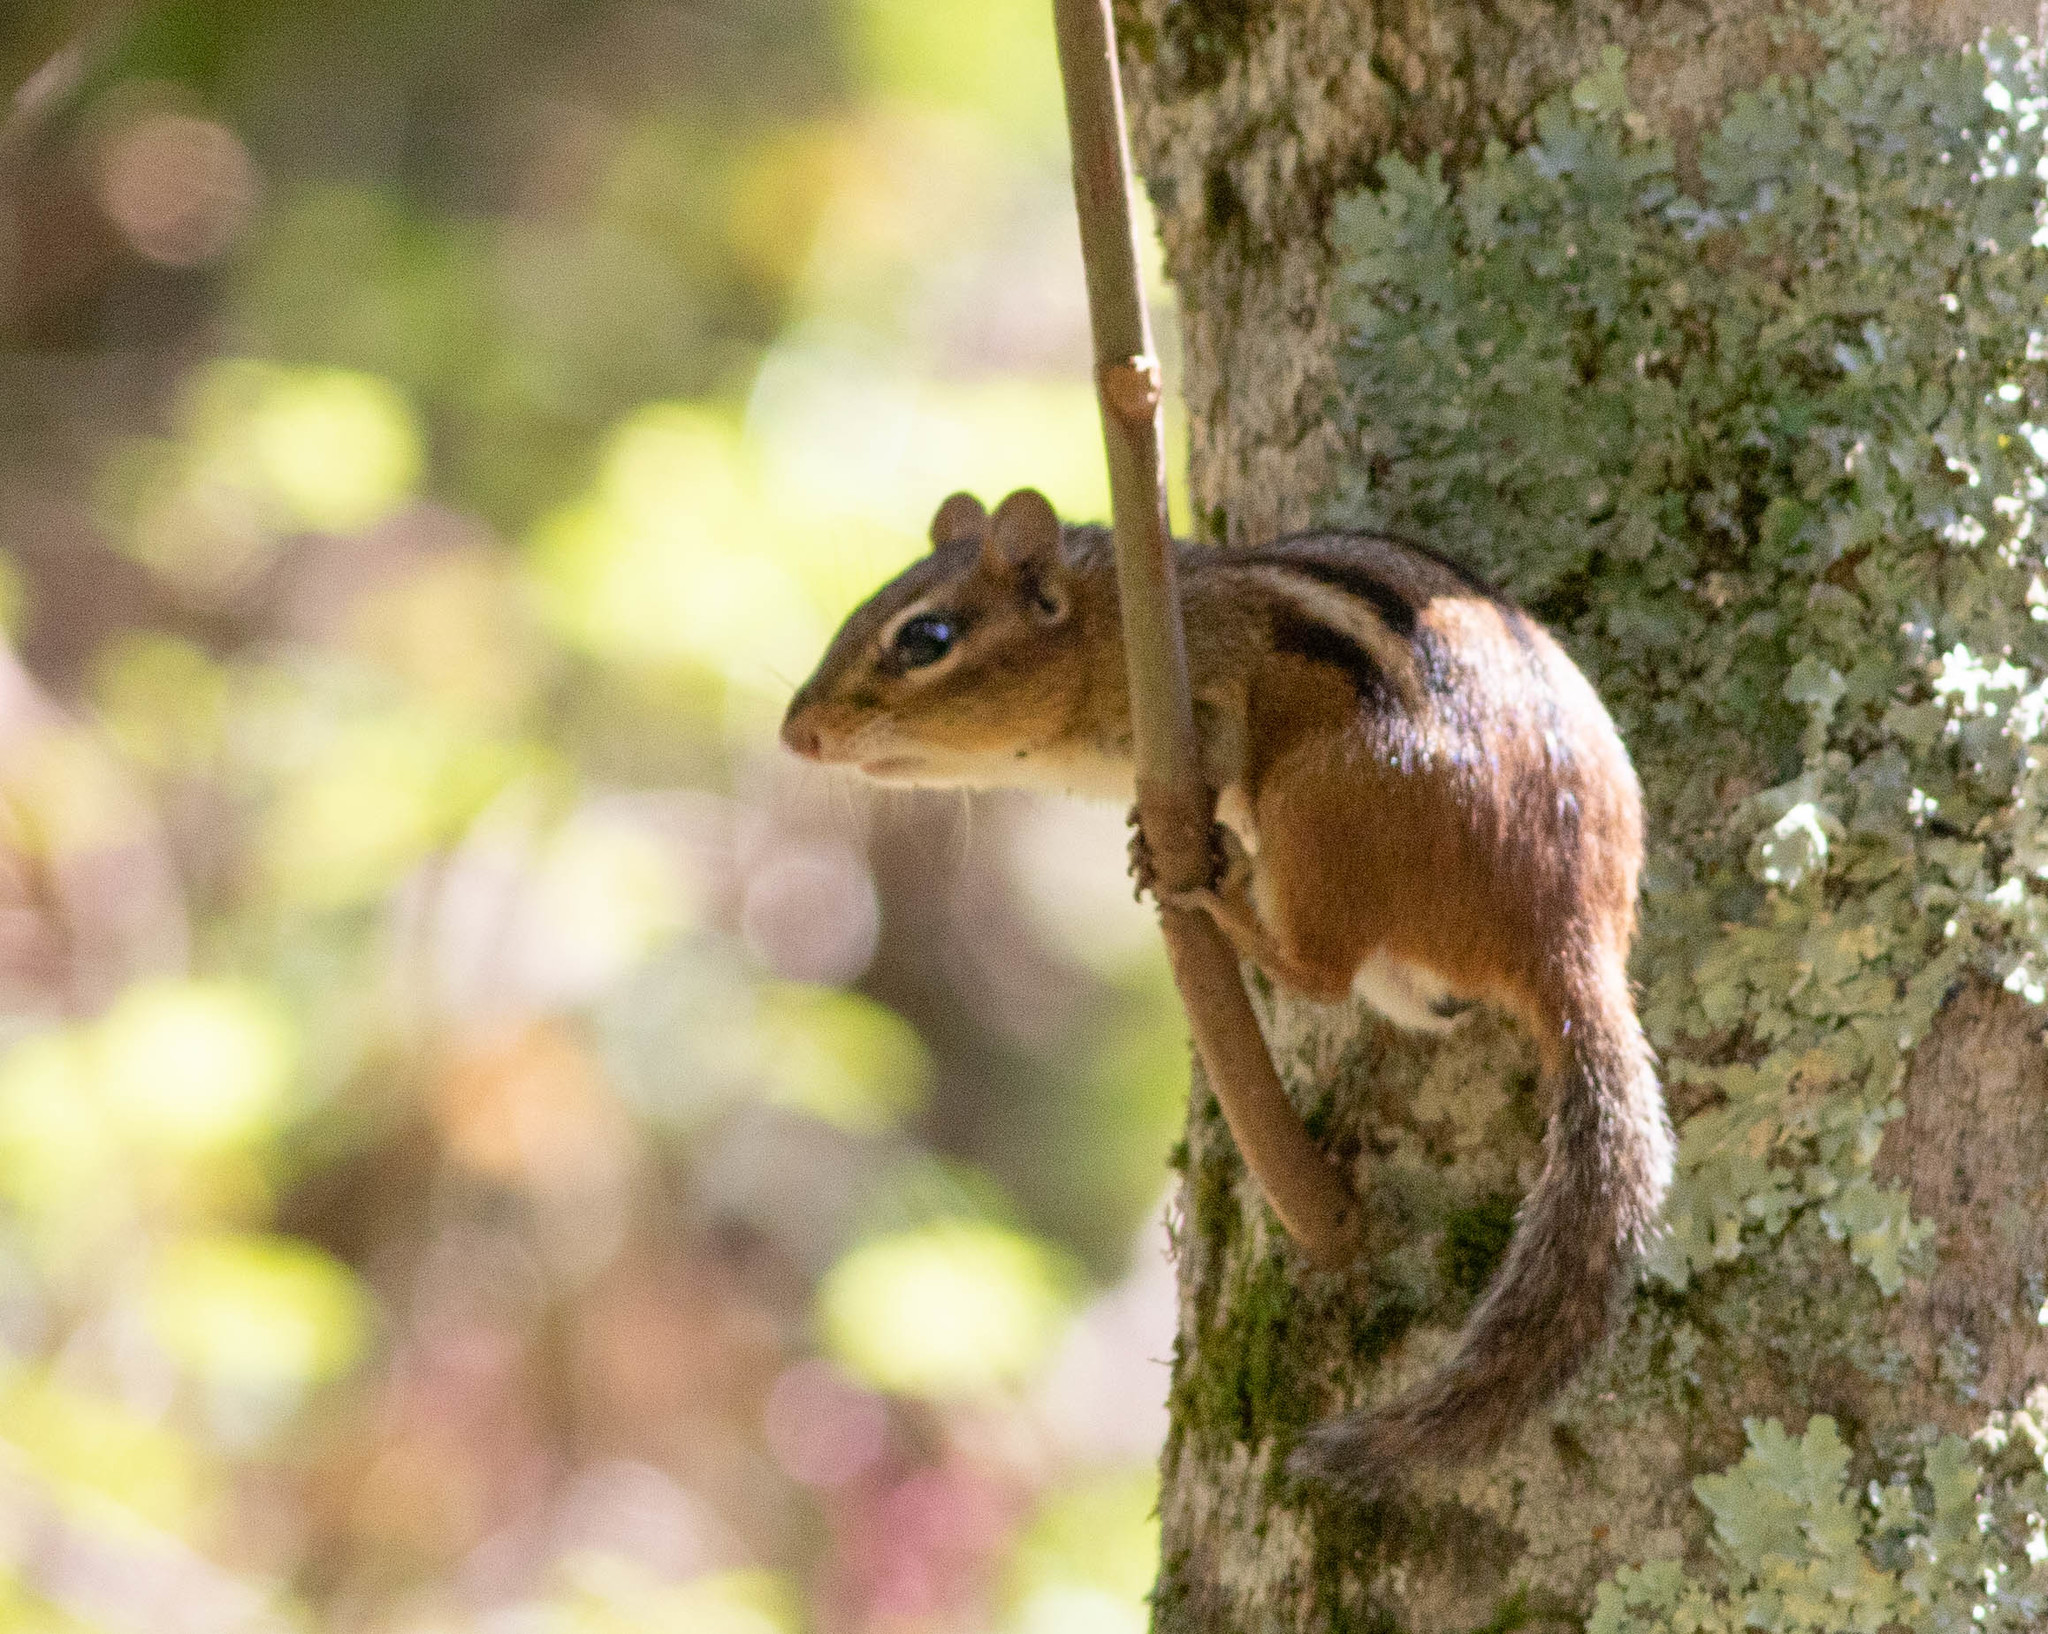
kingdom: Animalia
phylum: Chordata
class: Mammalia
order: Rodentia
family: Sciuridae
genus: Tamias
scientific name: Tamias striatus
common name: Eastern chipmunk
